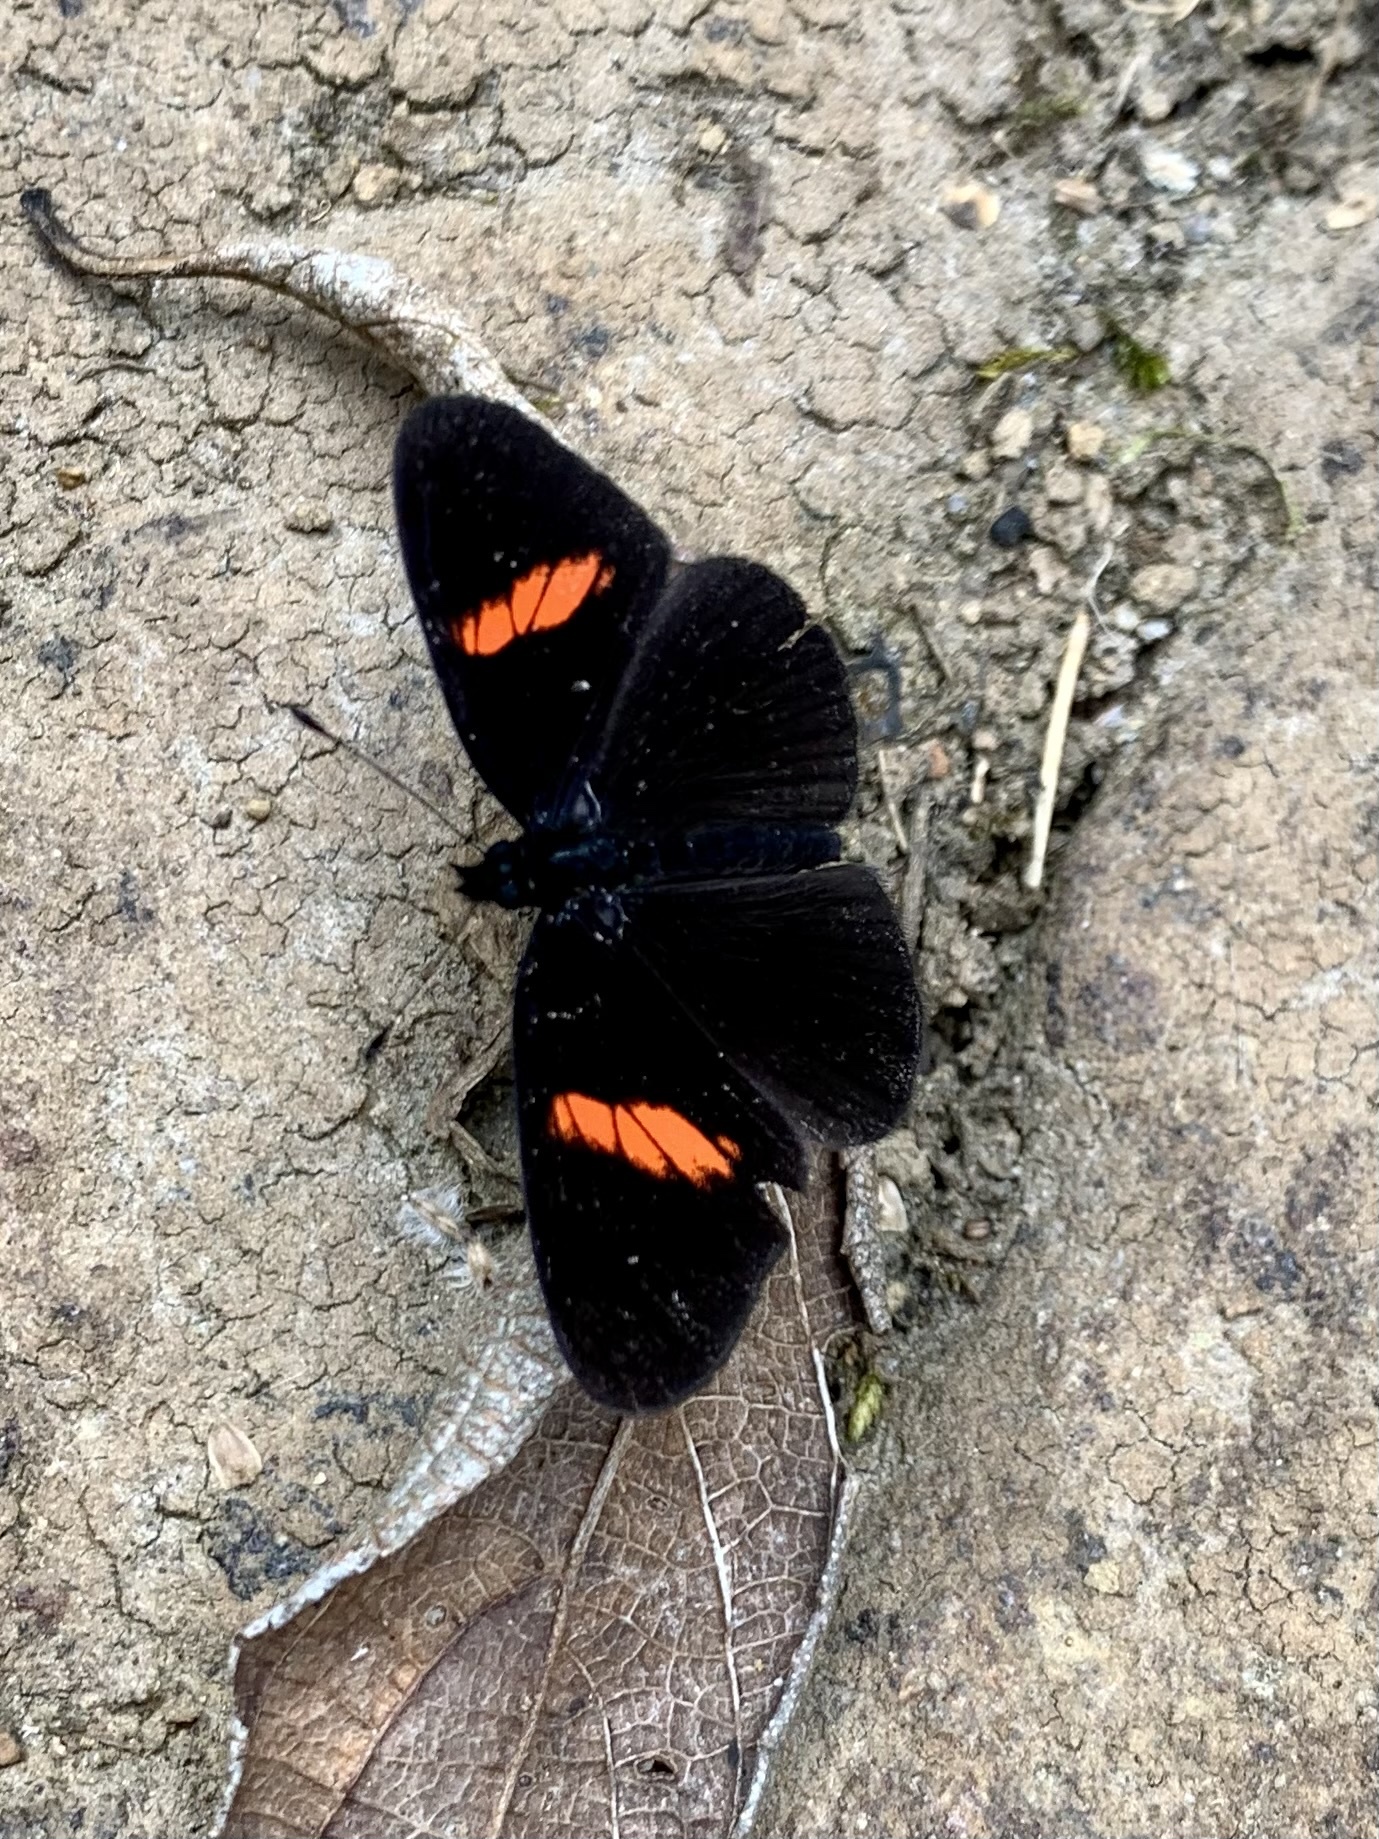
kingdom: Animalia
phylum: Arthropoda
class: Insecta
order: Lepidoptera
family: Nymphalidae
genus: Castilia
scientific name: Castilia castilla
